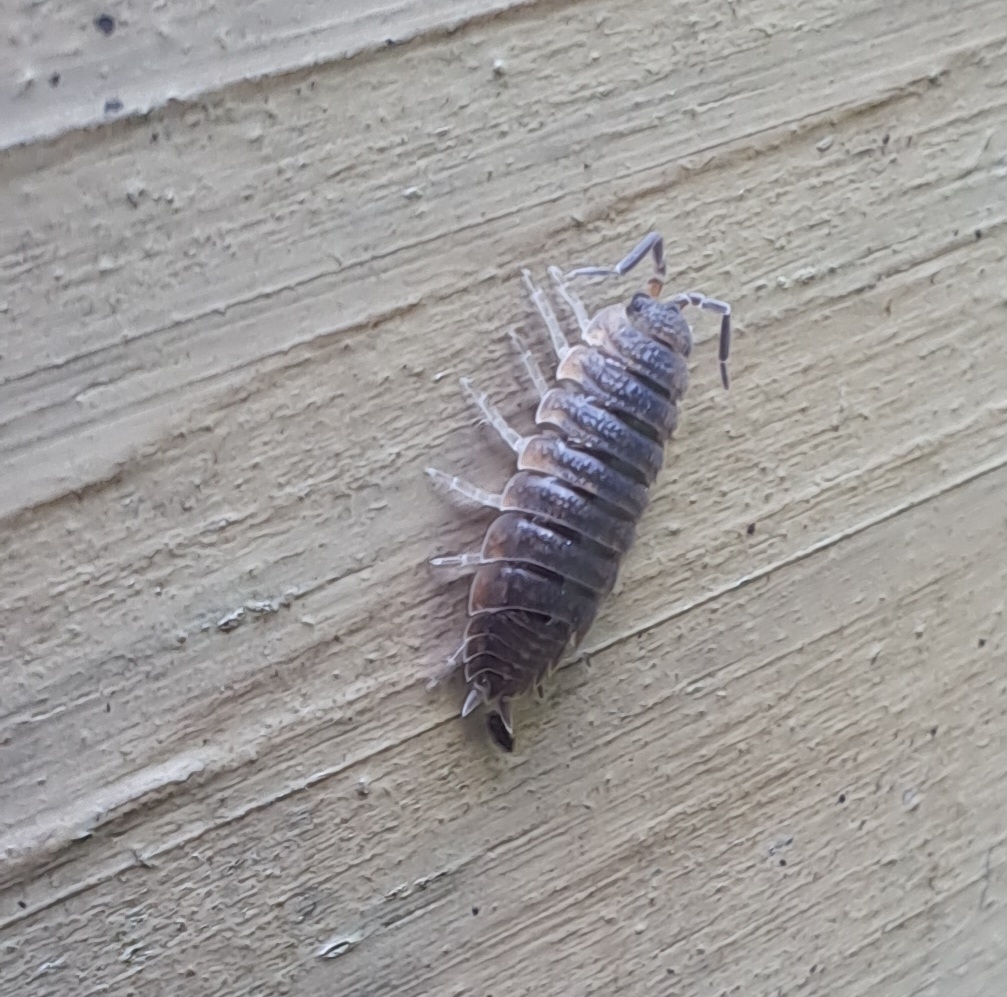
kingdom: Animalia
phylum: Arthropoda
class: Malacostraca
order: Isopoda
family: Porcellionidae
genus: Porcellio
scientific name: Porcellio scaber
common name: Common rough woodlouse
